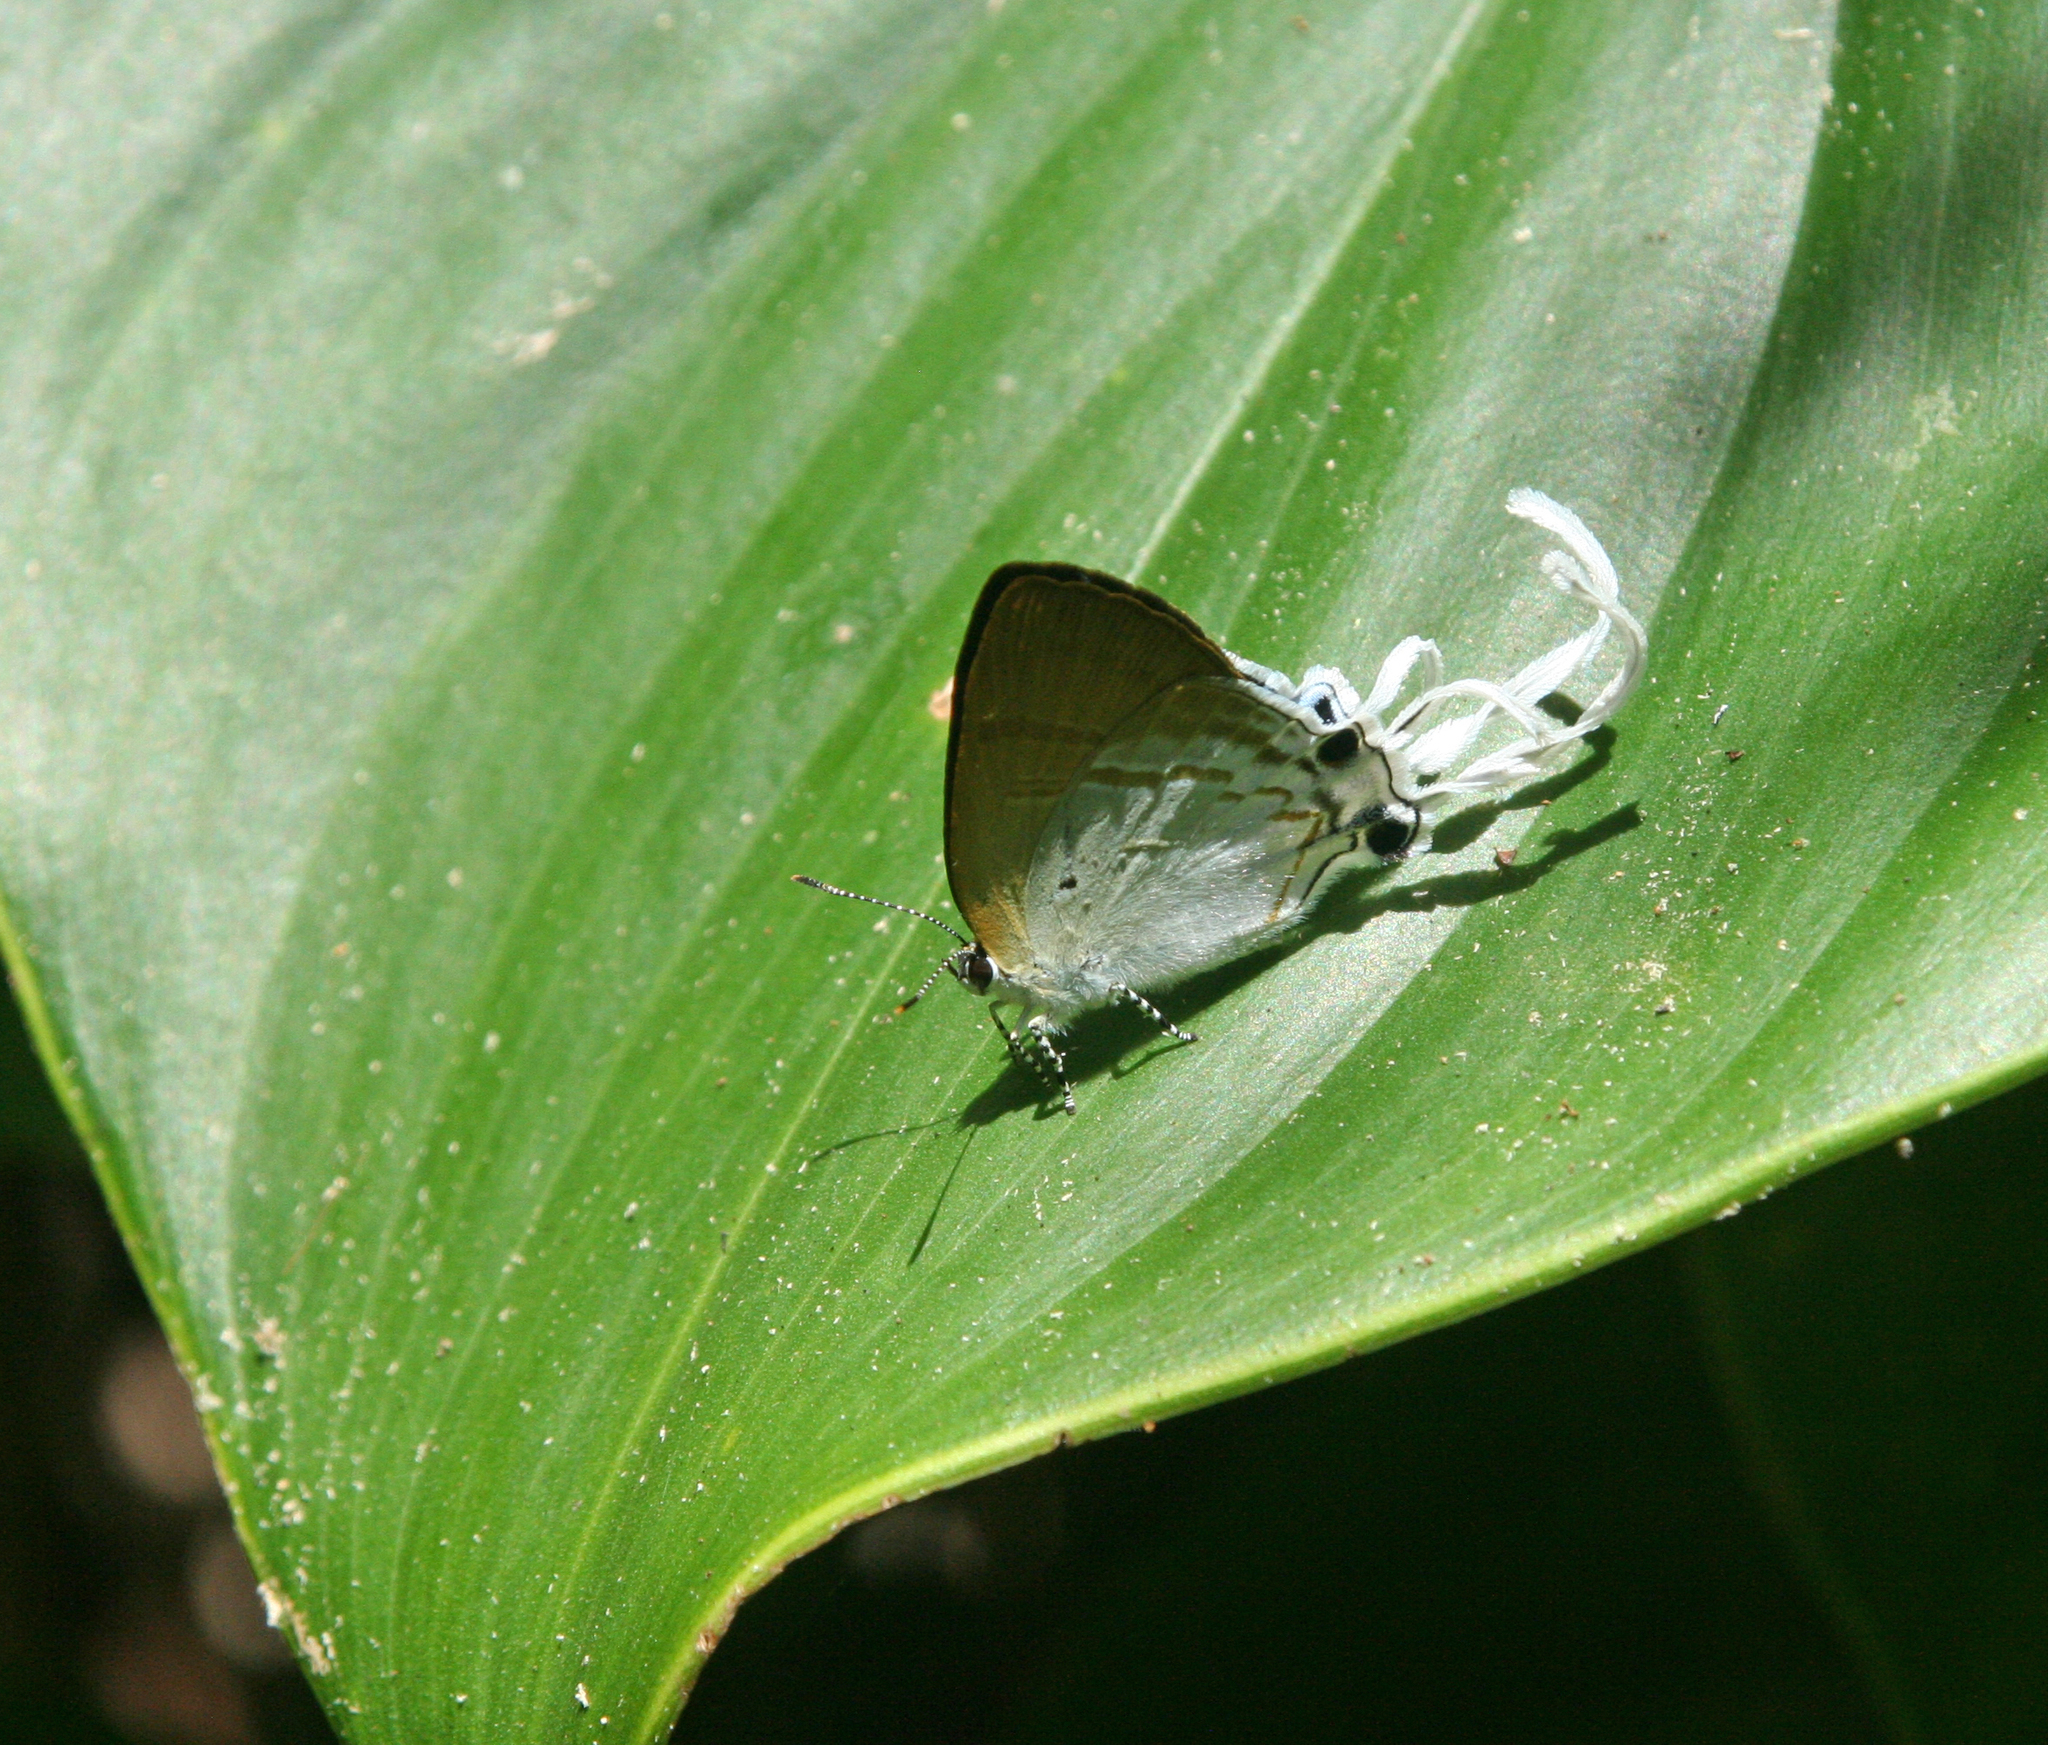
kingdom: Animalia
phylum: Arthropoda
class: Insecta
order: Lepidoptera
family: Lycaenidae
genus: Zeltus
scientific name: Zeltus amasa
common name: Fluffy tit
